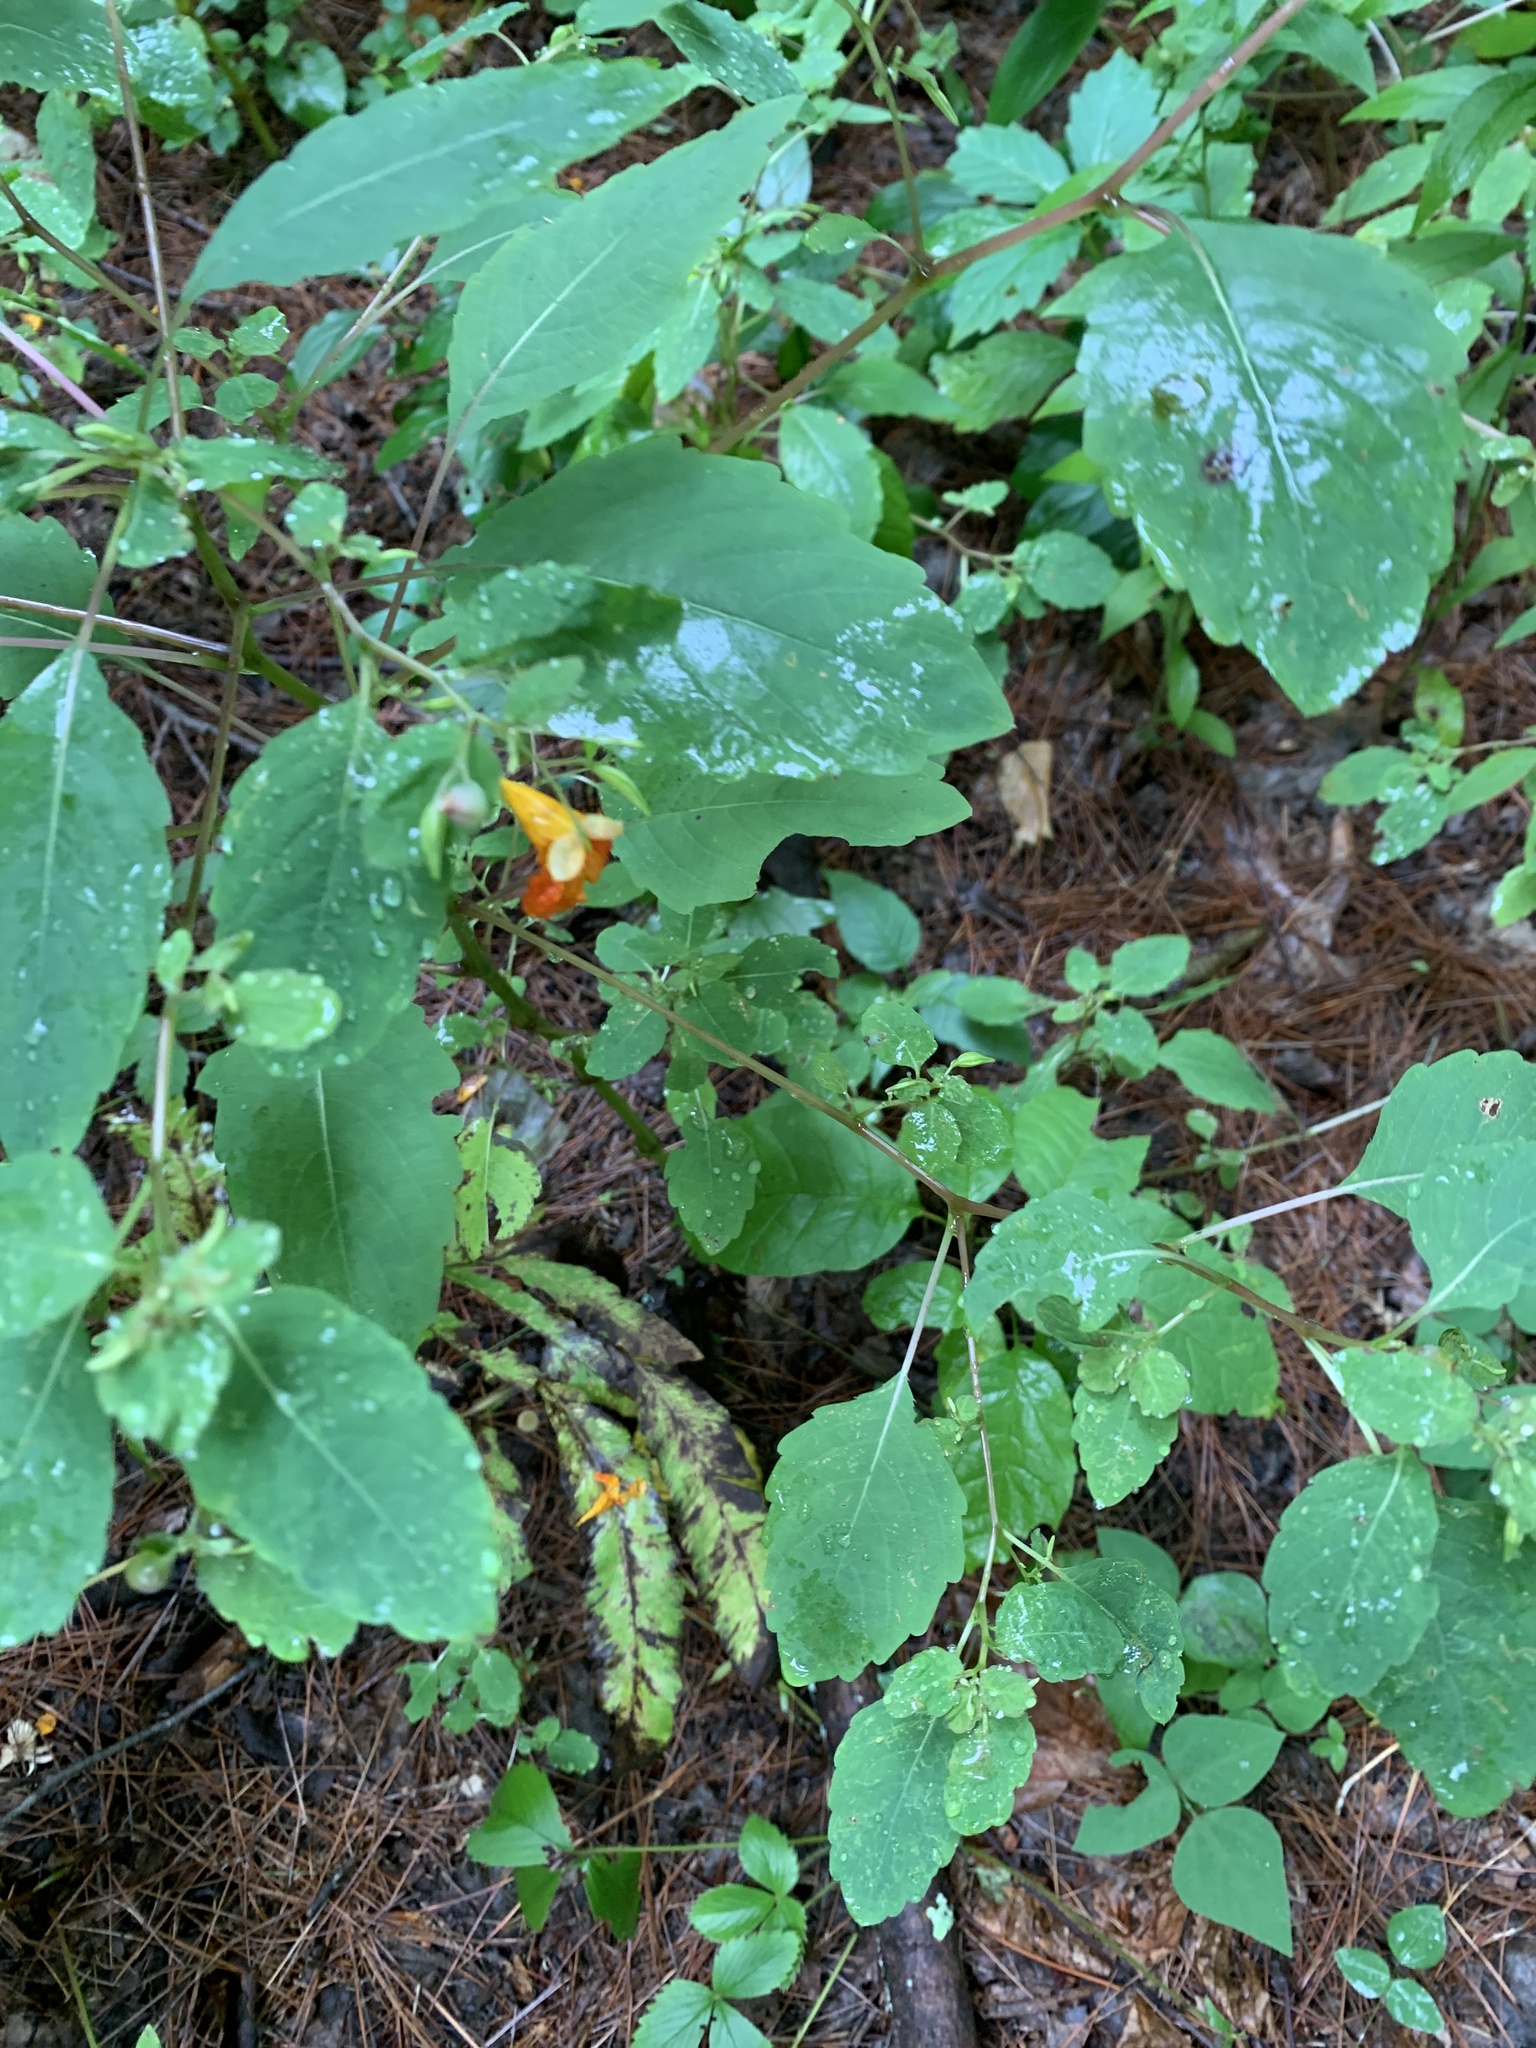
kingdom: Plantae
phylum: Tracheophyta
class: Magnoliopsida
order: Ericales
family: Balsaminaceae
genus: Impatiens
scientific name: Impatiens capensis
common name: Orange balsam
